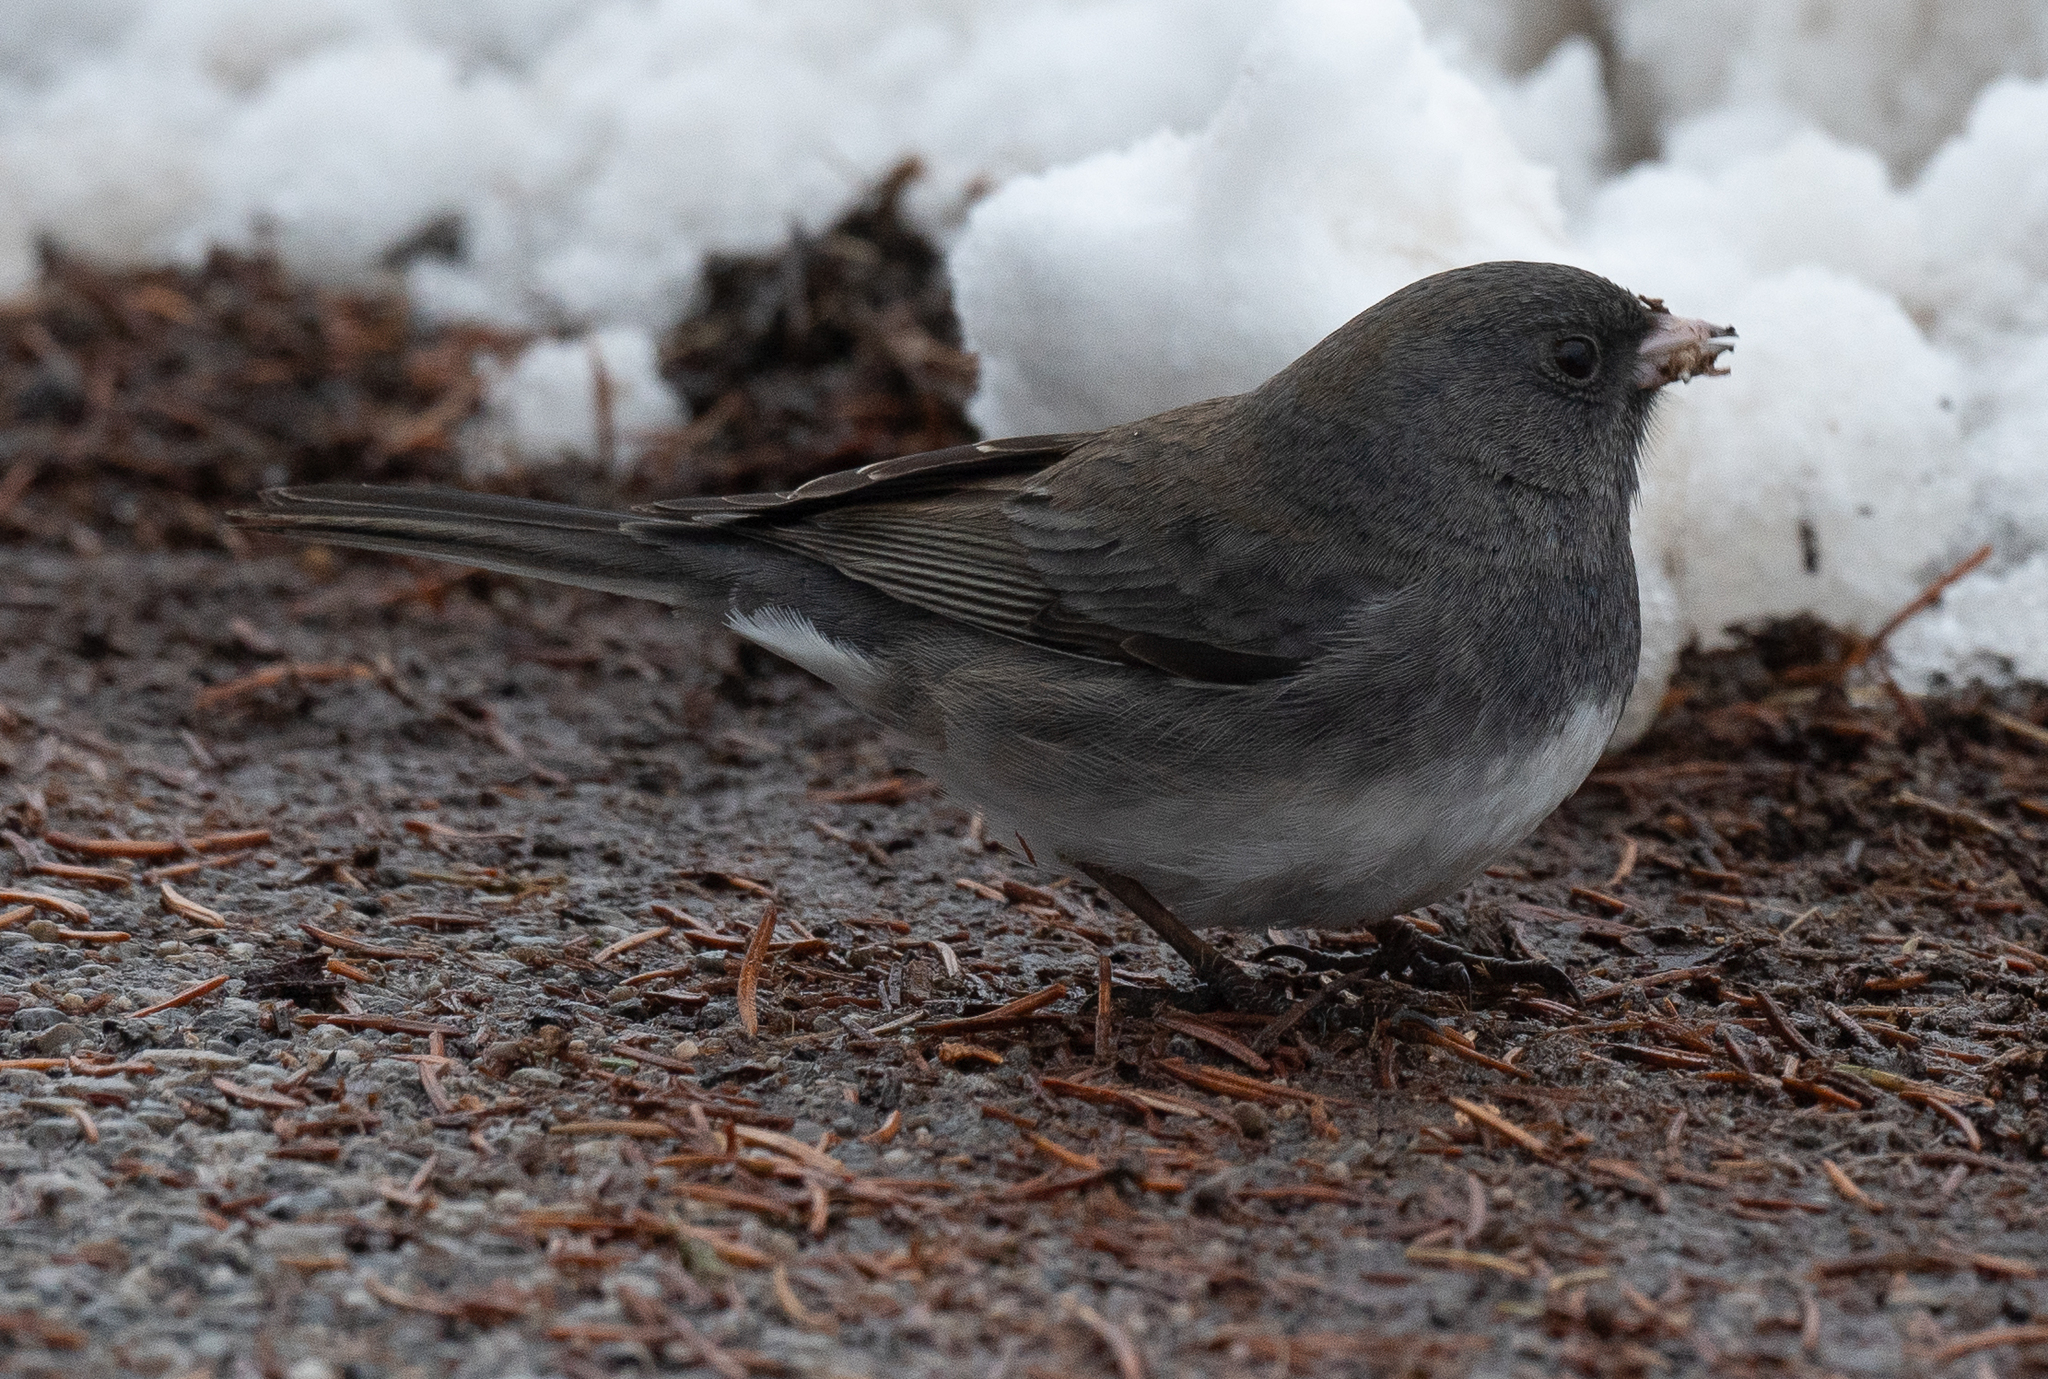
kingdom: Animalia
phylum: Chordata
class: Aves
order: Passeriformes
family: Passerellidae
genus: Junco
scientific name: Junco hyemalis
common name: Dark-eyed junco
